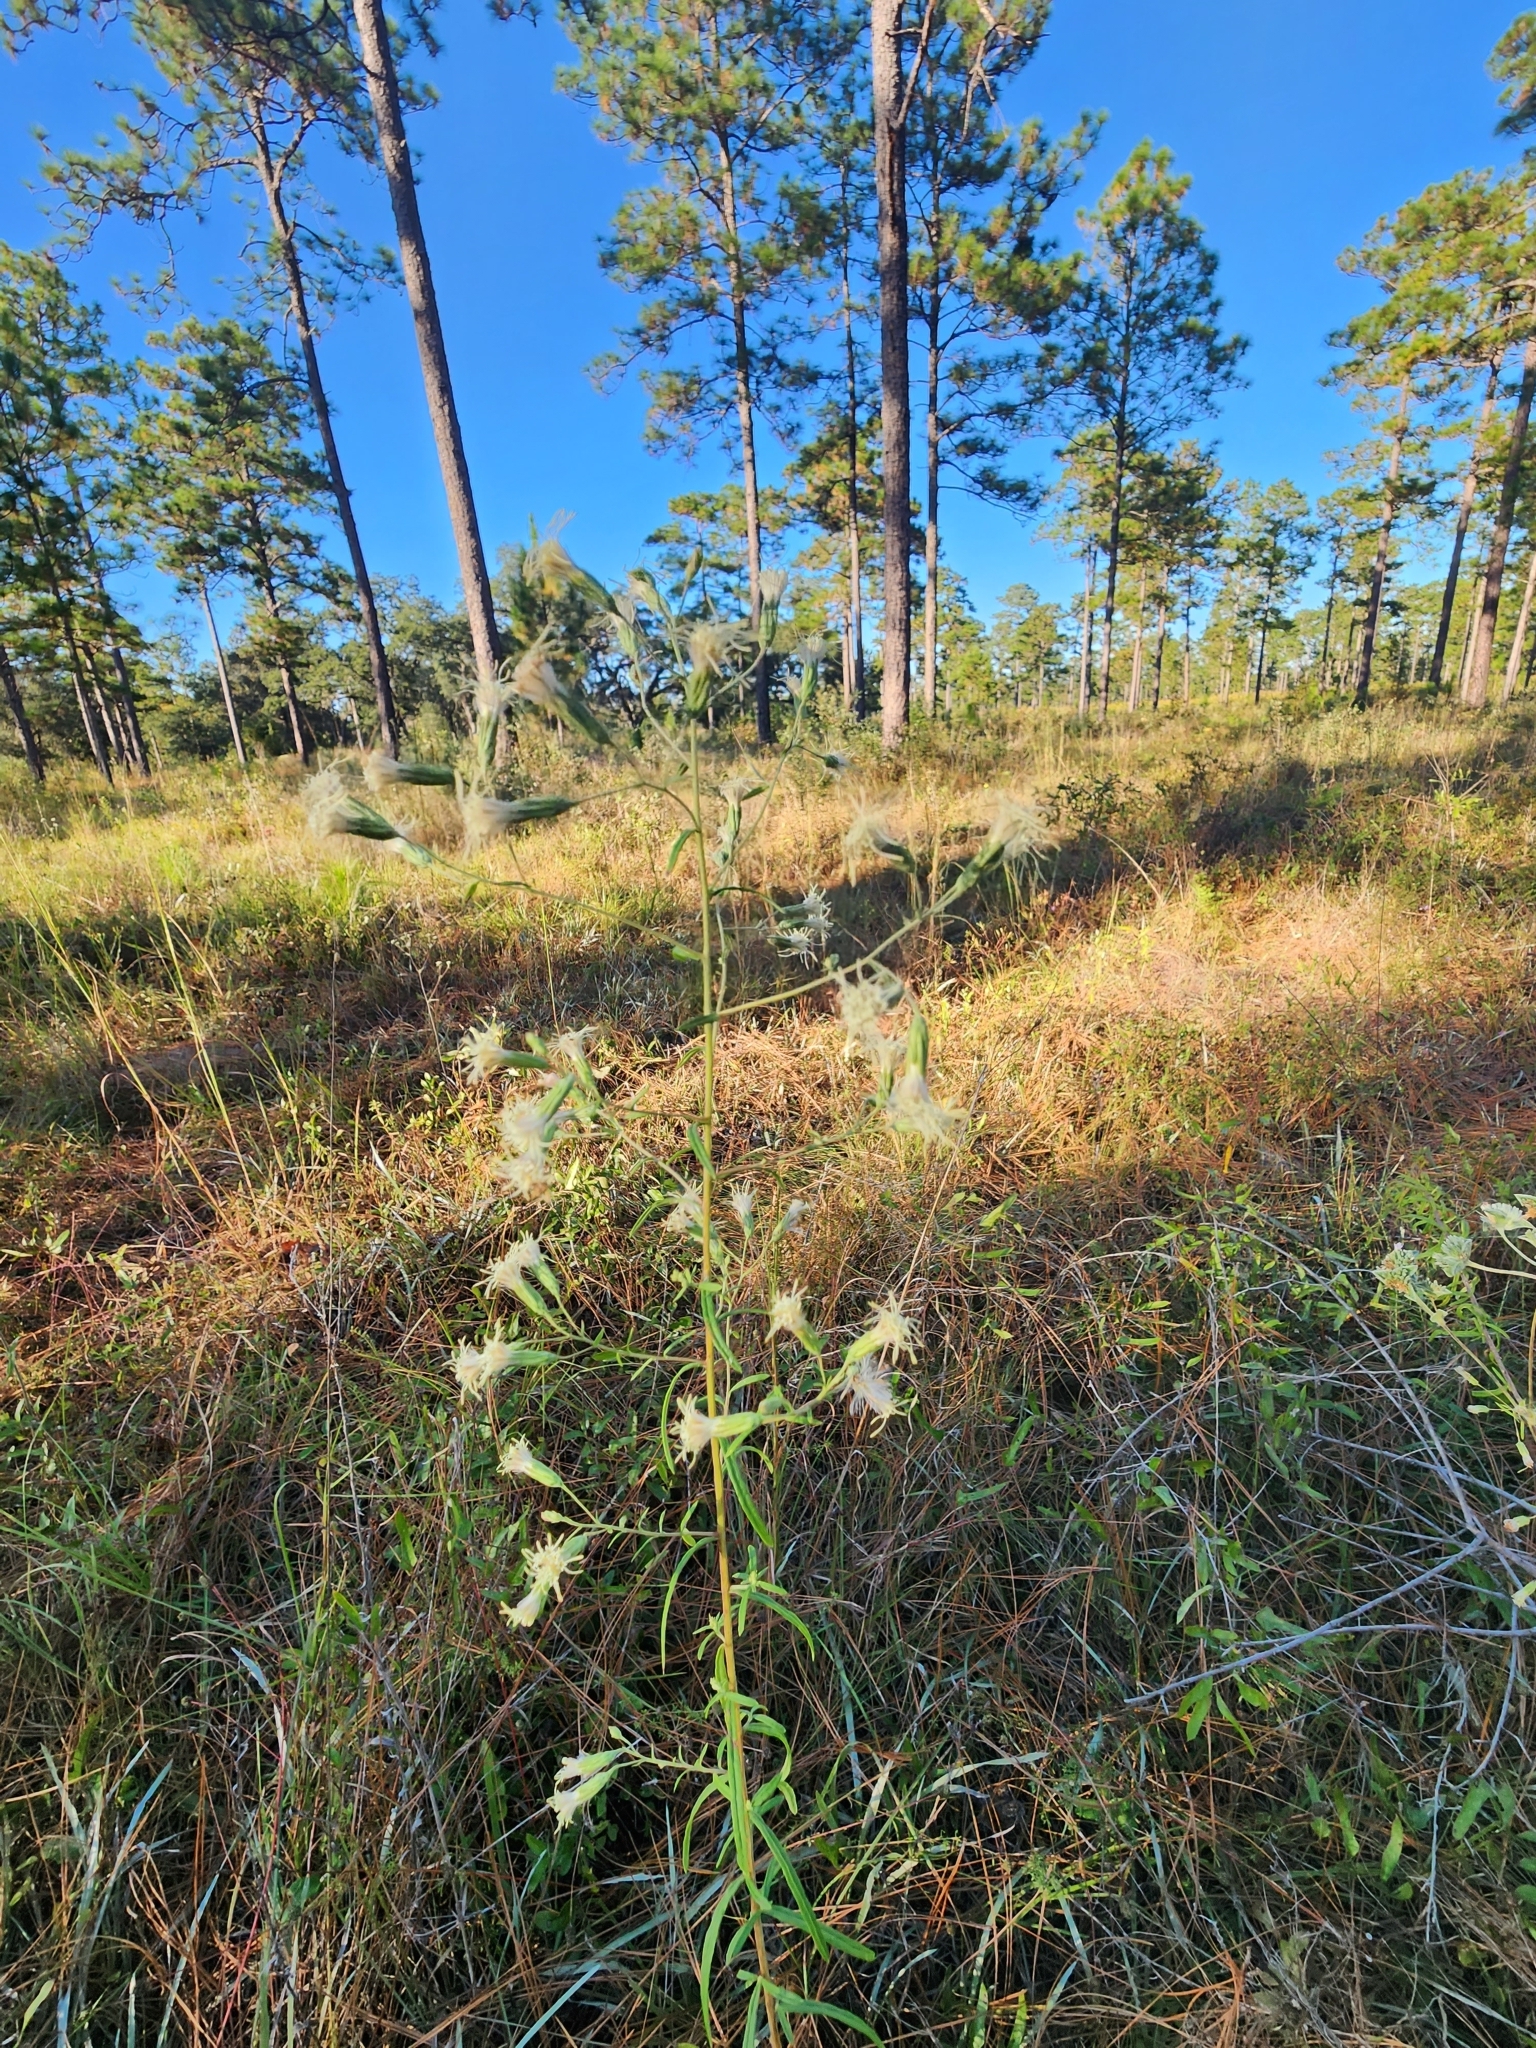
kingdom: Plantae
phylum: Tracheophyta
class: Magnoliopsida
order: Asterales
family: Asteraceae
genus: Brickellia
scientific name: Brickellia eupatorioides
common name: False boneset
